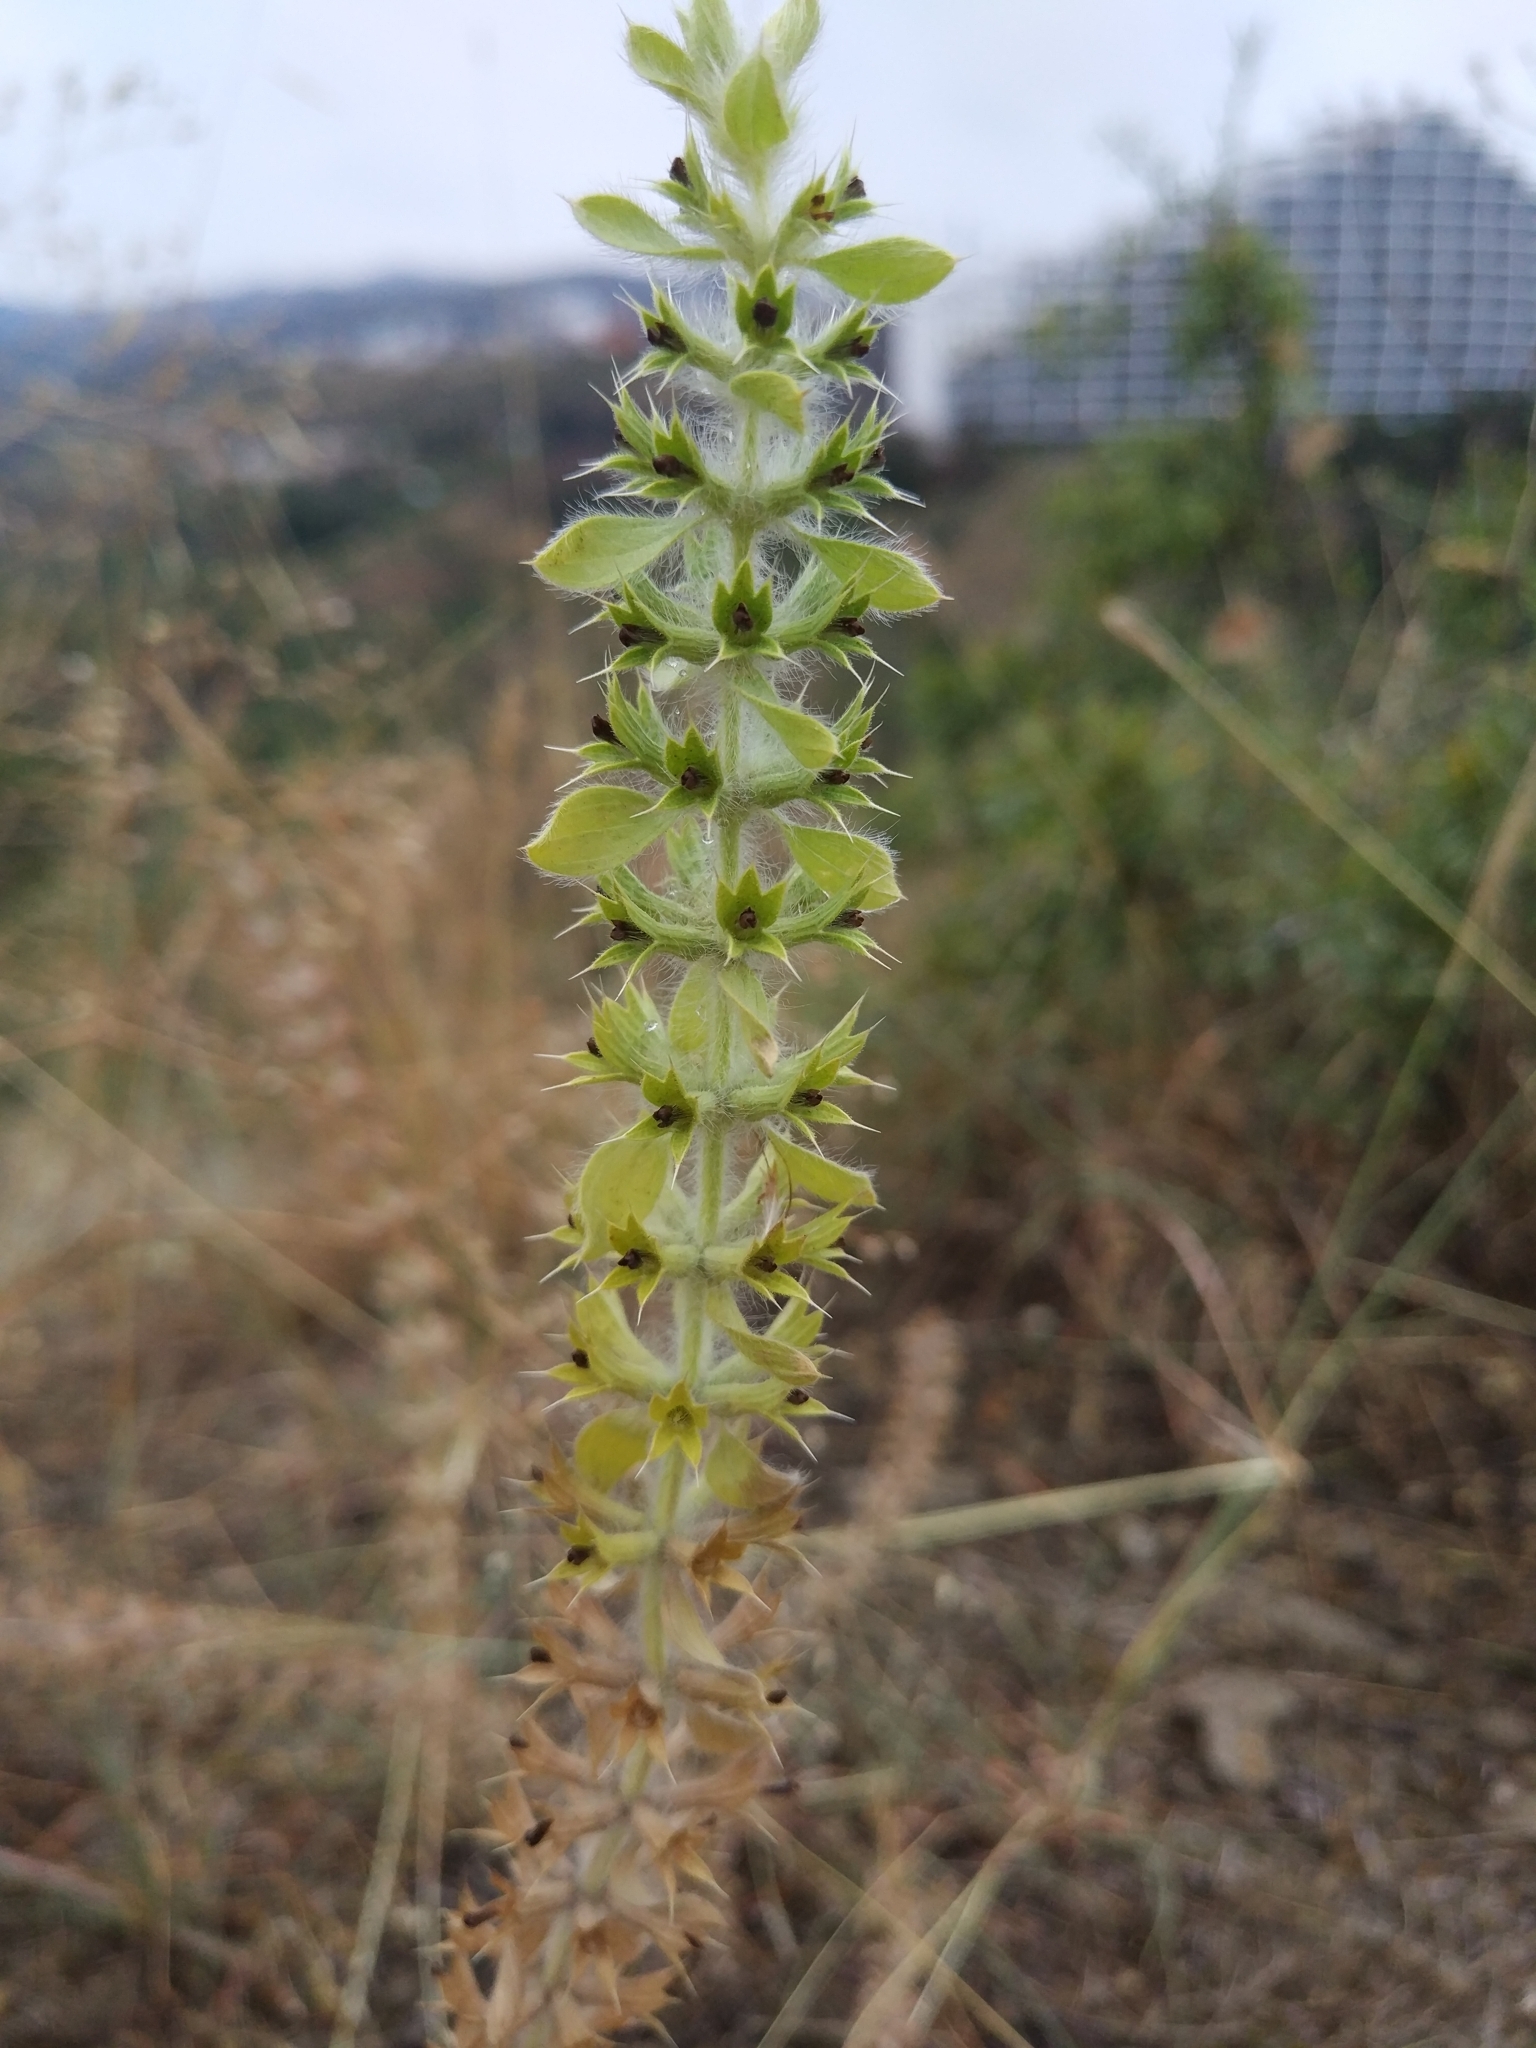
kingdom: Plantae
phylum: Tracheophyta
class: Magnoliopsida
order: Lamiales
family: Lamiaceae
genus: Sideritis
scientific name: Sideritis montana
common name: Mountain ironwort
